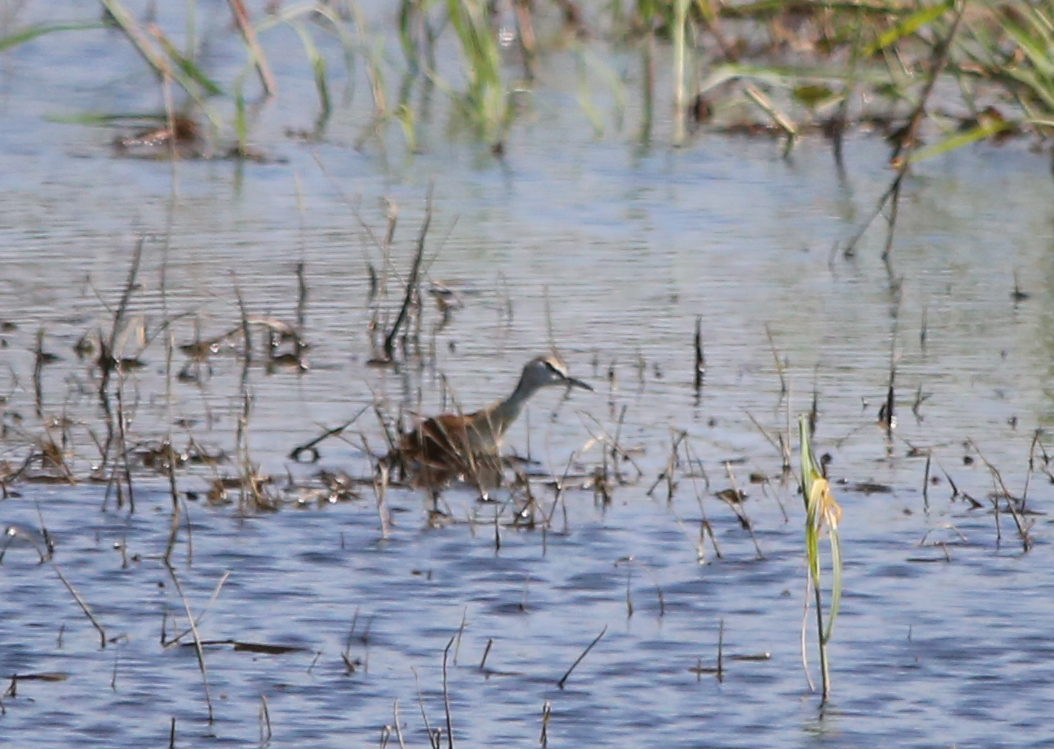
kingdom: Animalia
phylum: Chordata
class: Aves
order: Charadriiformes
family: Jacanidae
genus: Actophilornis
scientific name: Actophilornis africanus
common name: African jacana
